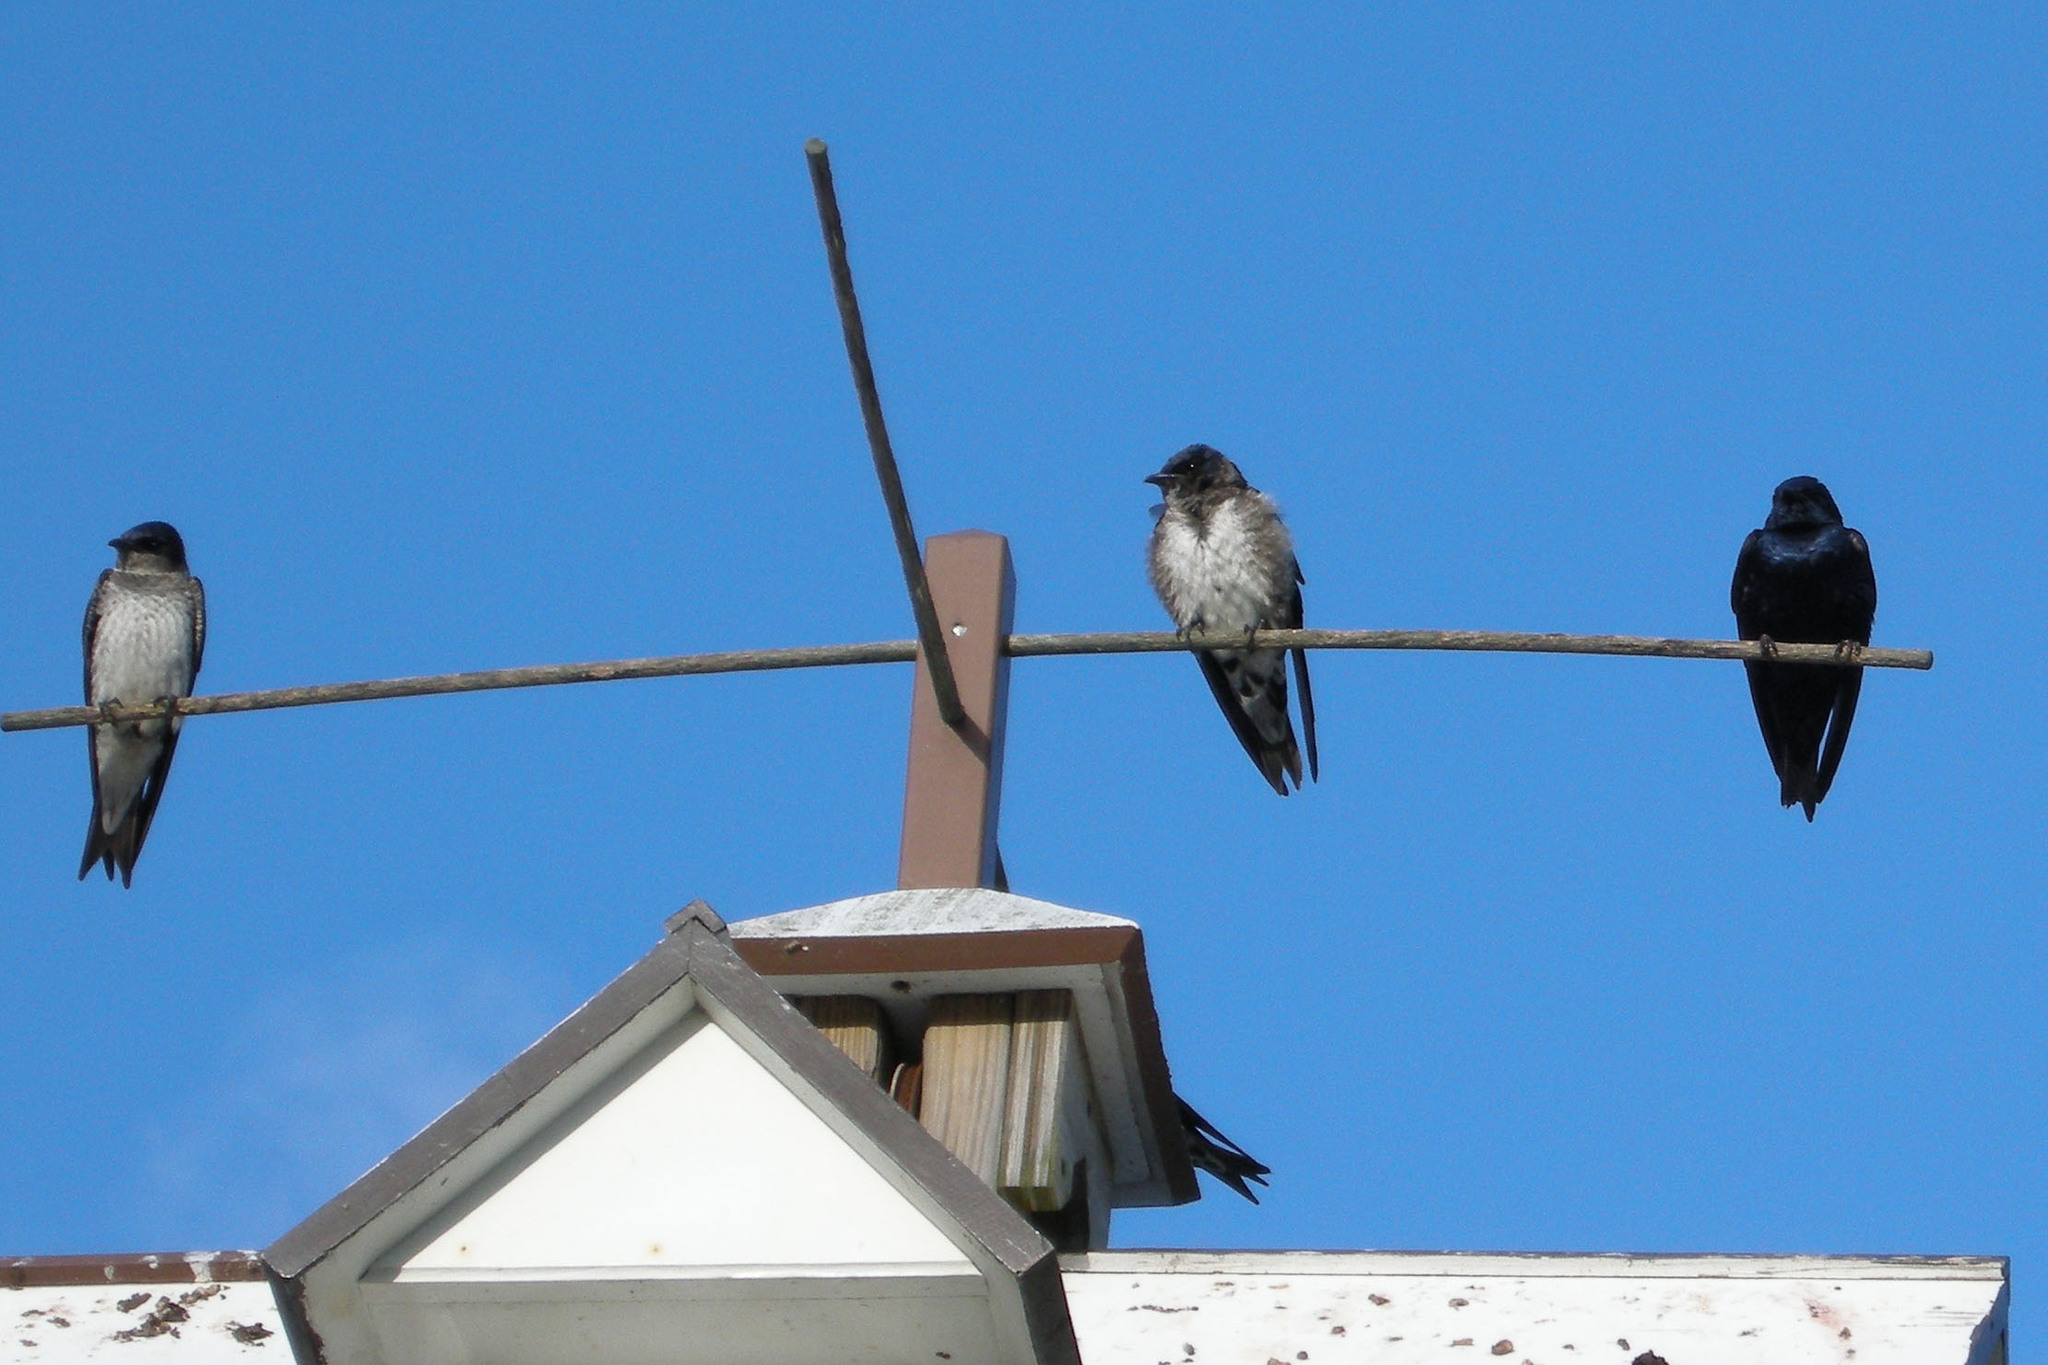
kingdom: Animalia
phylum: Chordata
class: Aves
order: Passeriformes
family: Hirundinidae
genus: Progne
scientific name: Progne subis
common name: Purple martin
